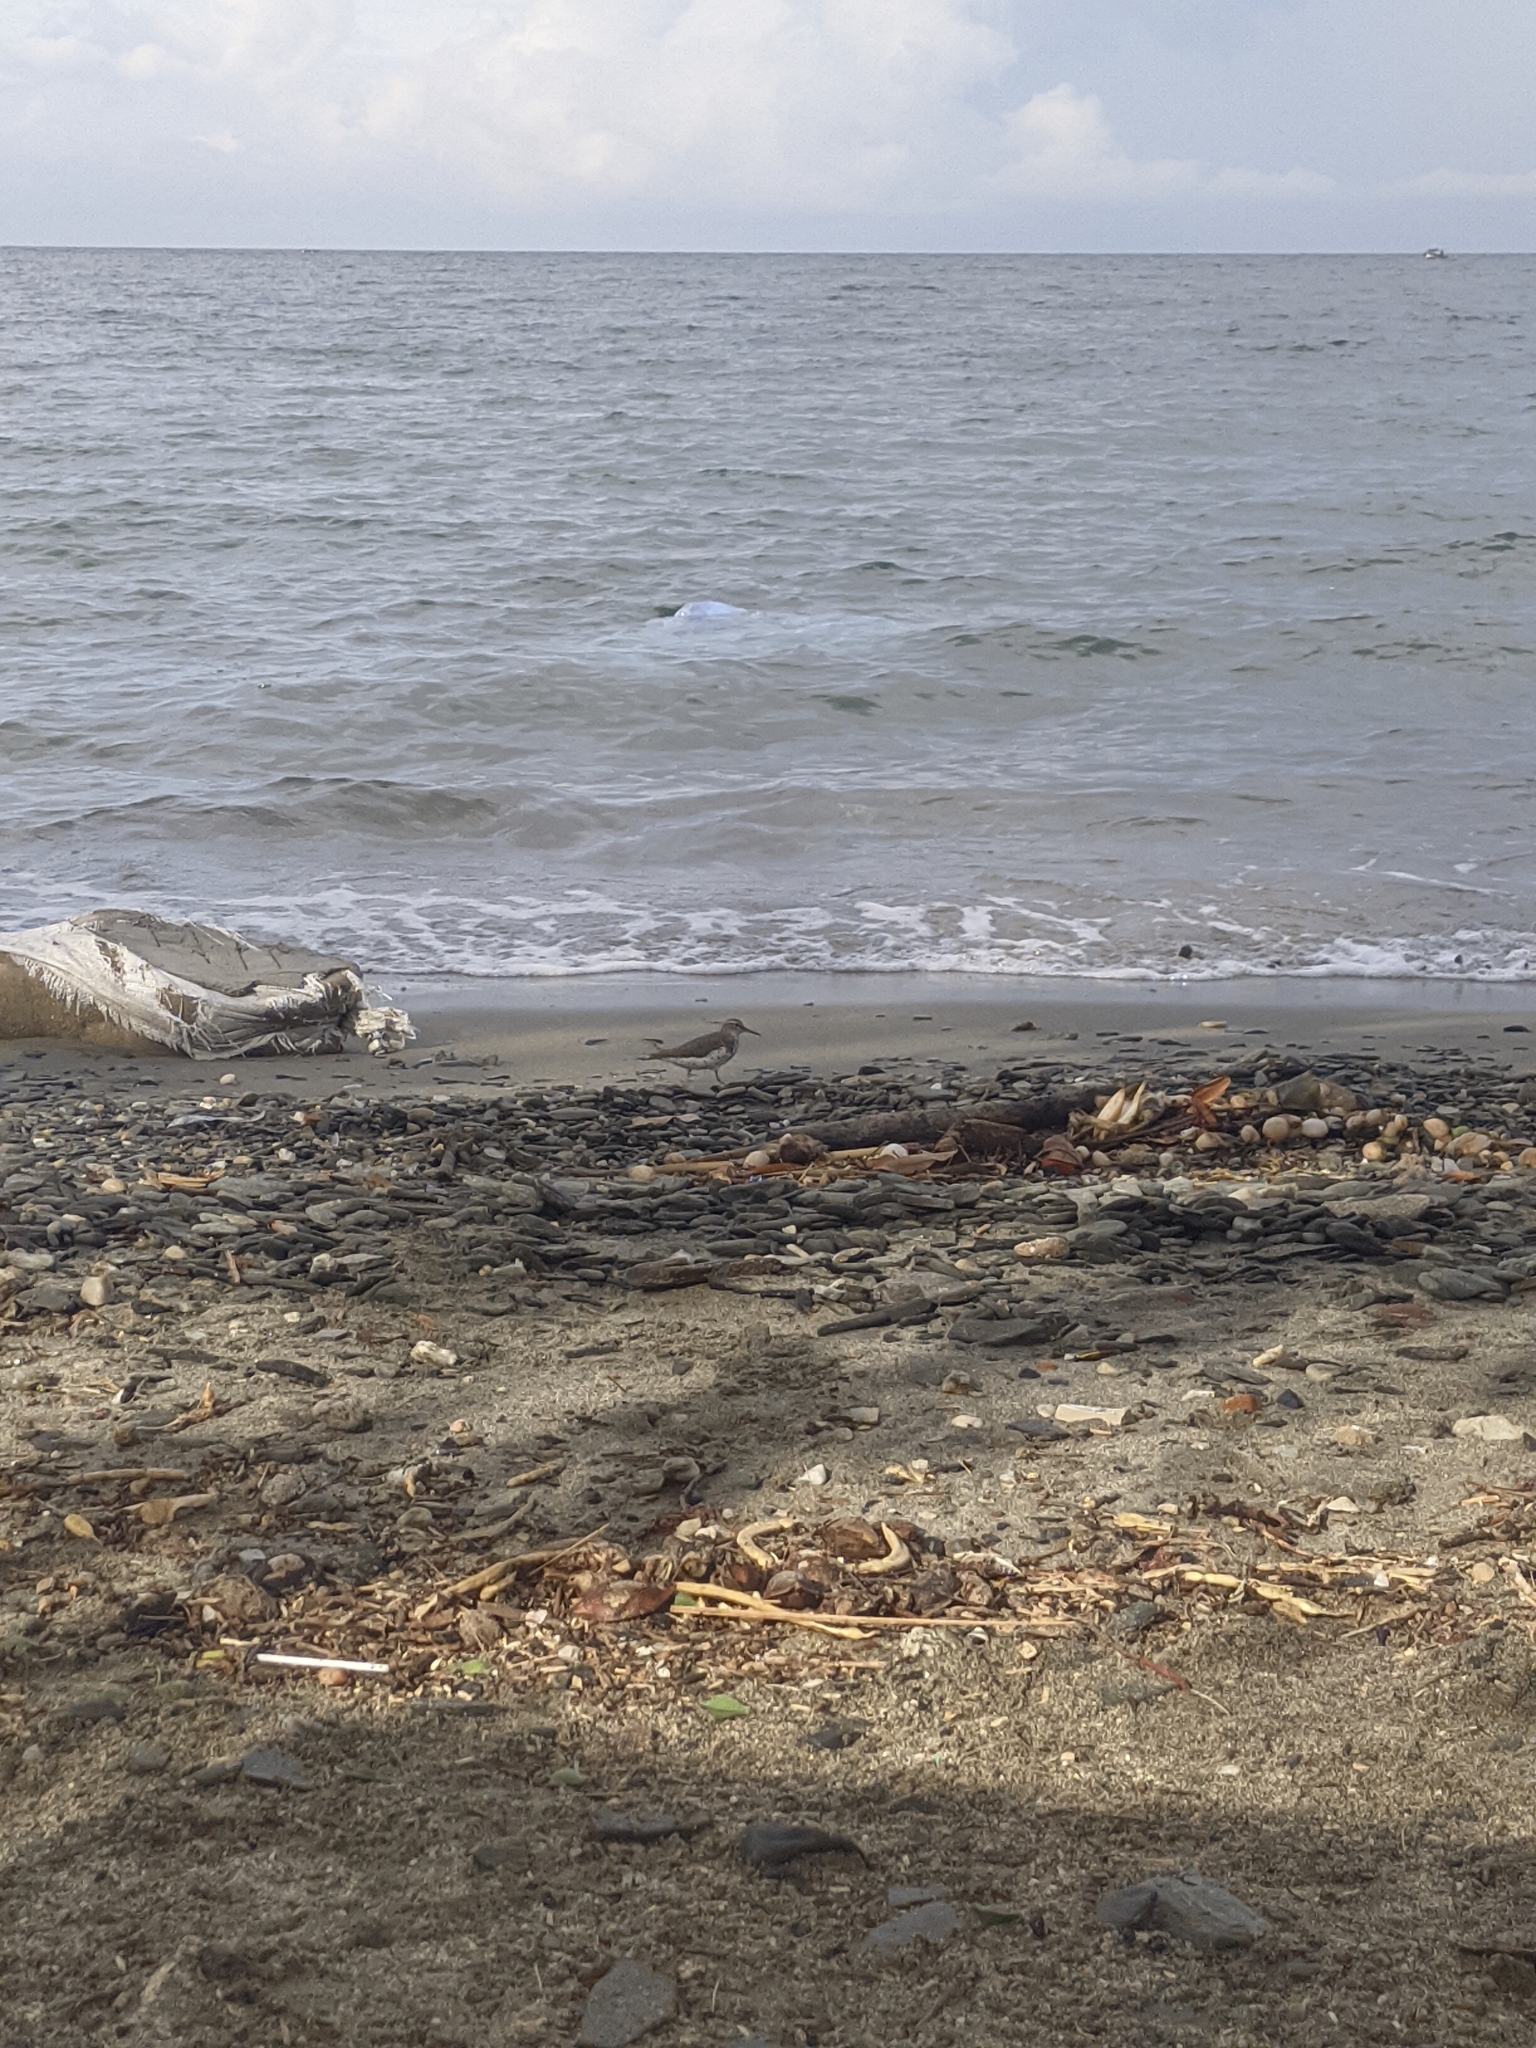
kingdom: Animalia
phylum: Chordata
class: Aves
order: Charadriiformes
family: Scolopacidae
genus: Actitis
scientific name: Actitis macularius
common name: Spotted sandpiper
